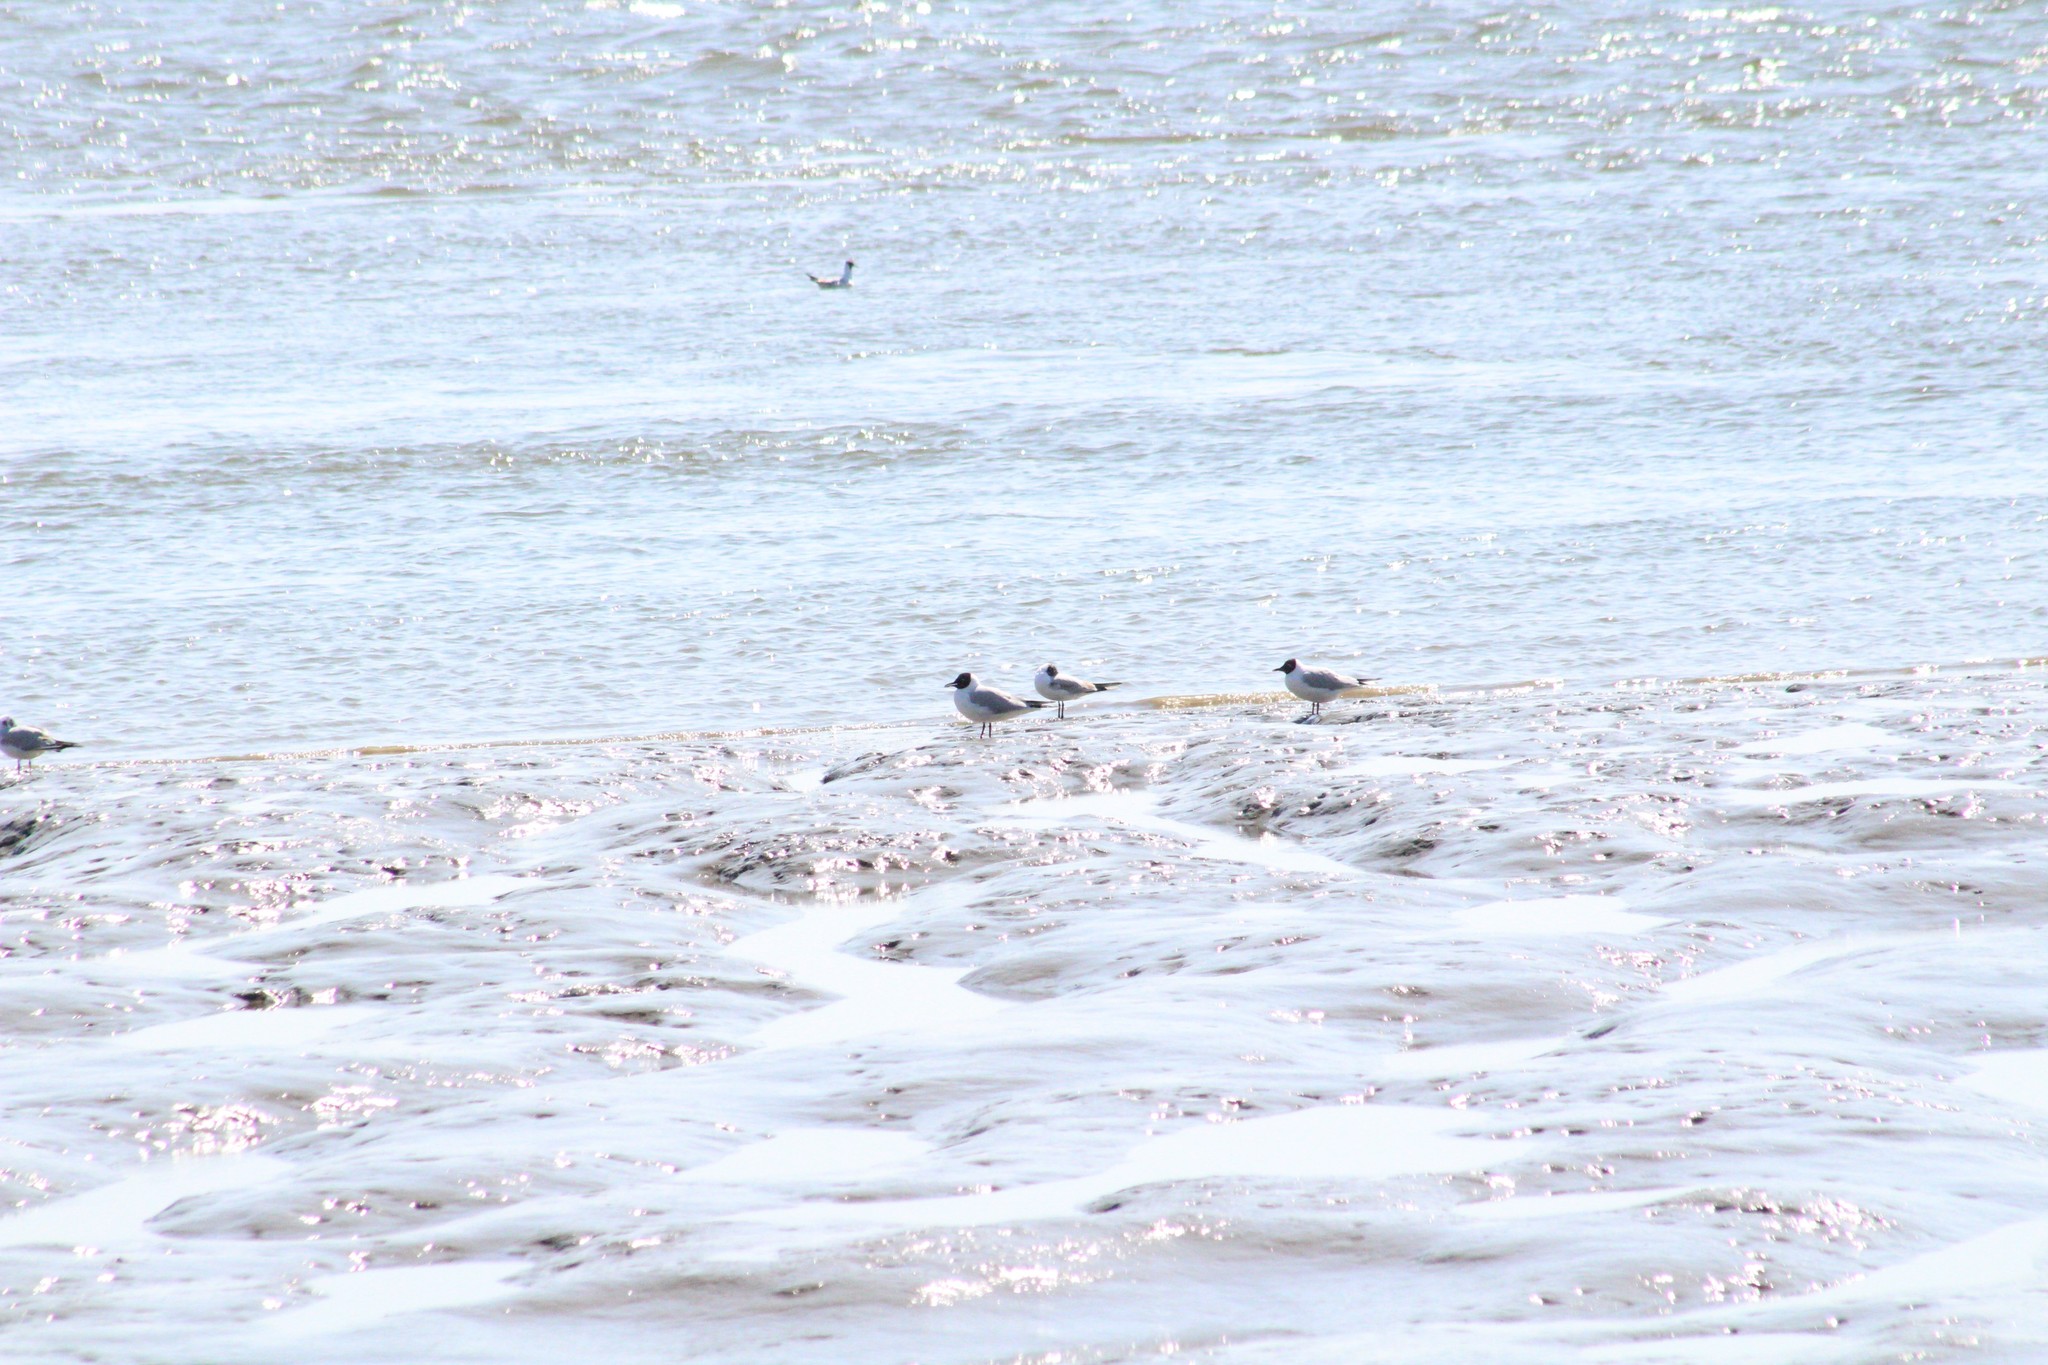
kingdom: Animalia
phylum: Chordata
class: Aves
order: Charadriiformes
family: Laridae
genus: Chroicocephalus
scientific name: Chroicocephalus ridibundus
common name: Black-headed gull
